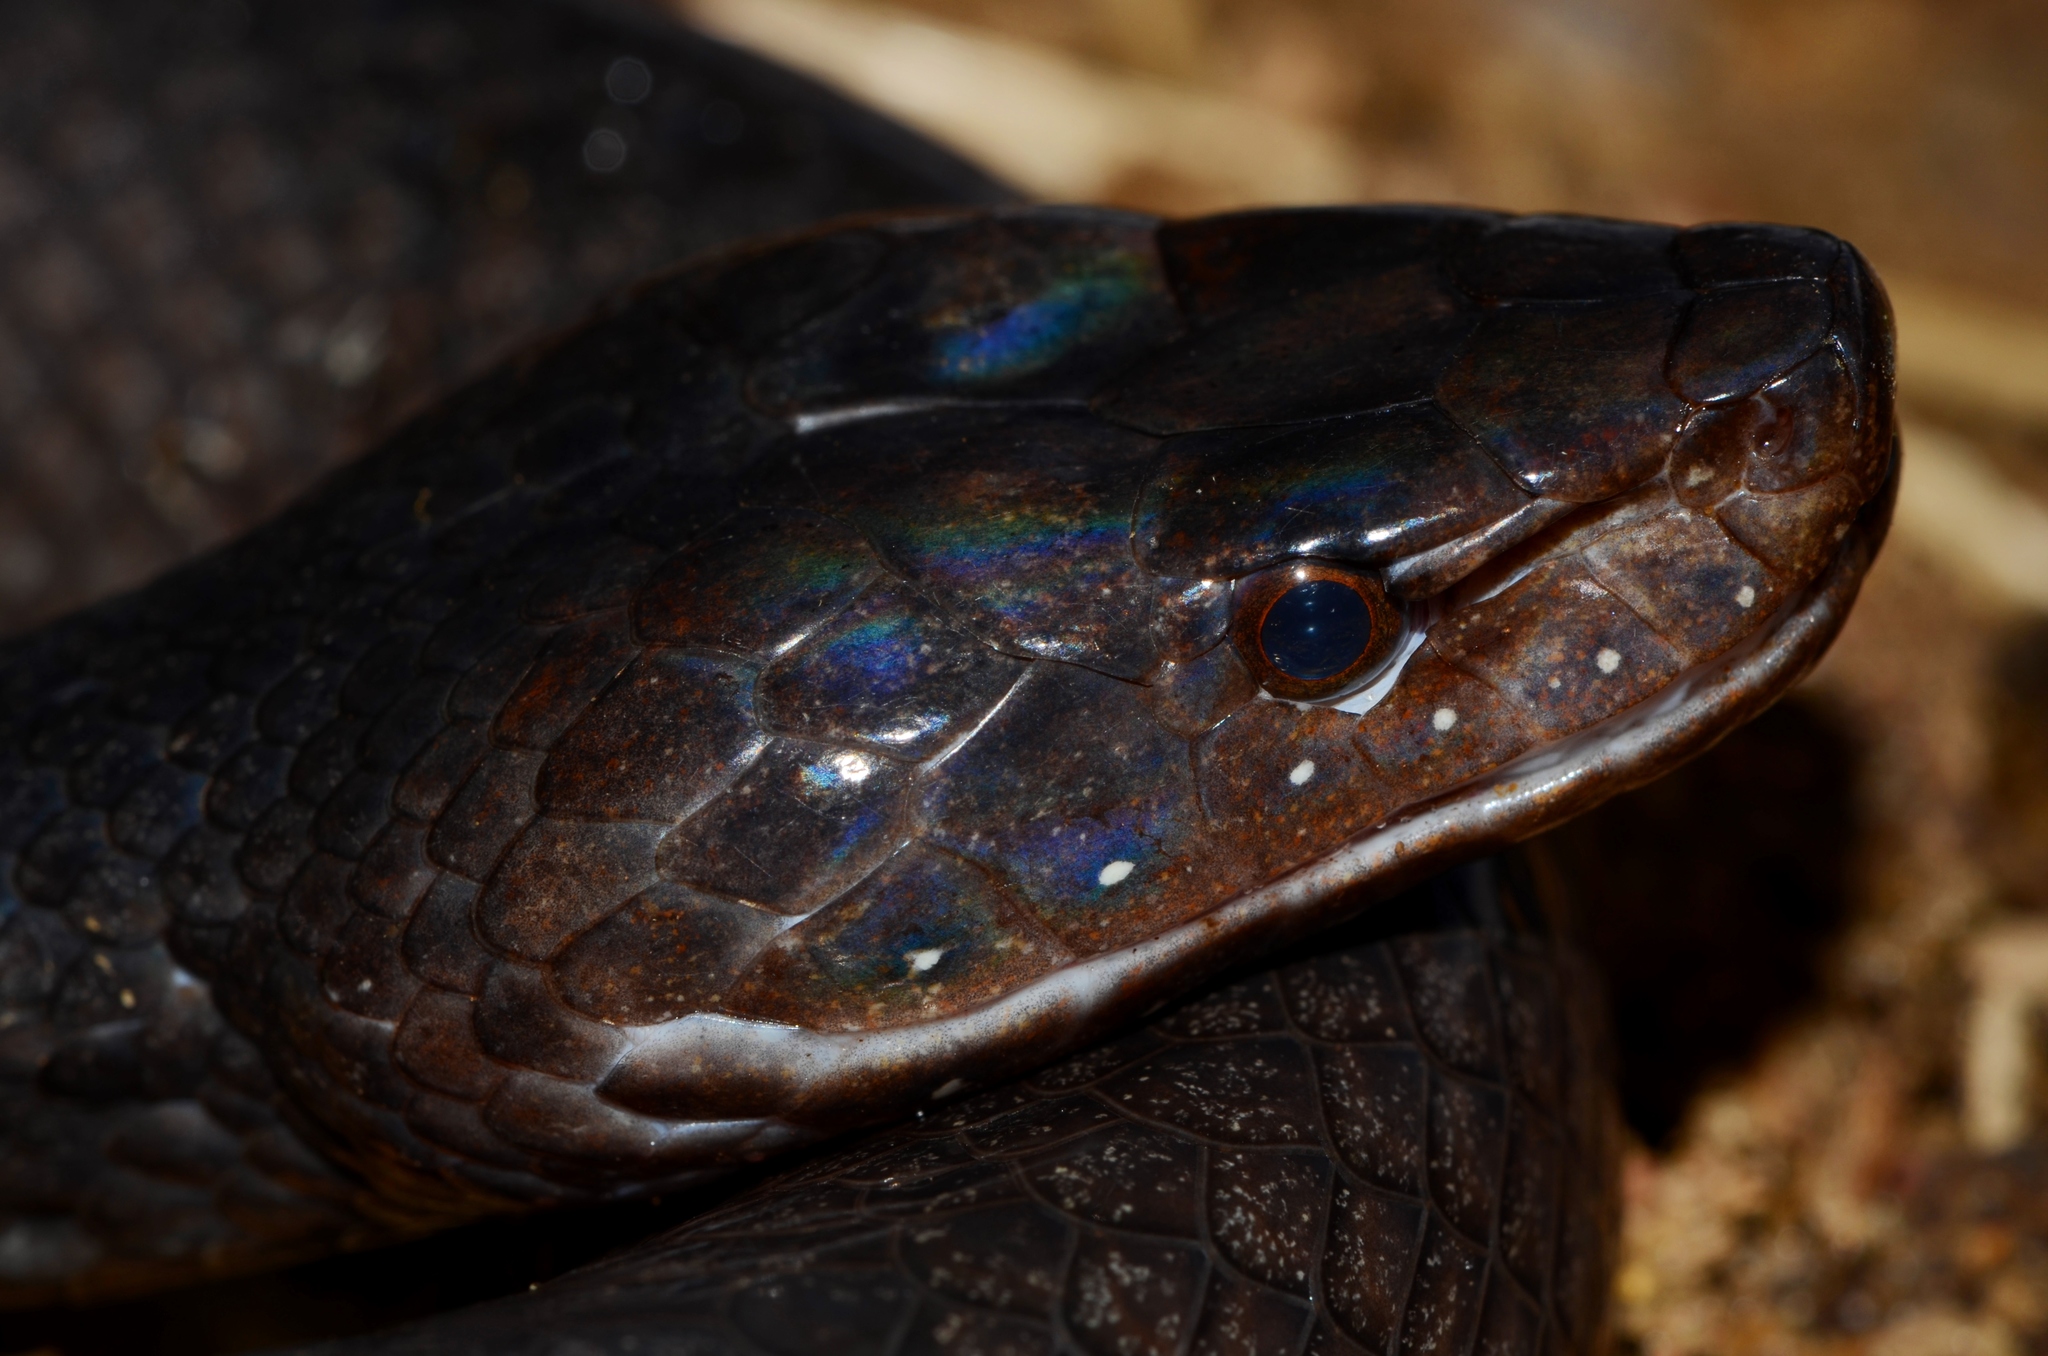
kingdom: Animalia
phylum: Chordata
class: Squamata
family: Lamprophiidae
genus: Bothrolycus
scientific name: Bothrolycus ater
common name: Günther's black snake
